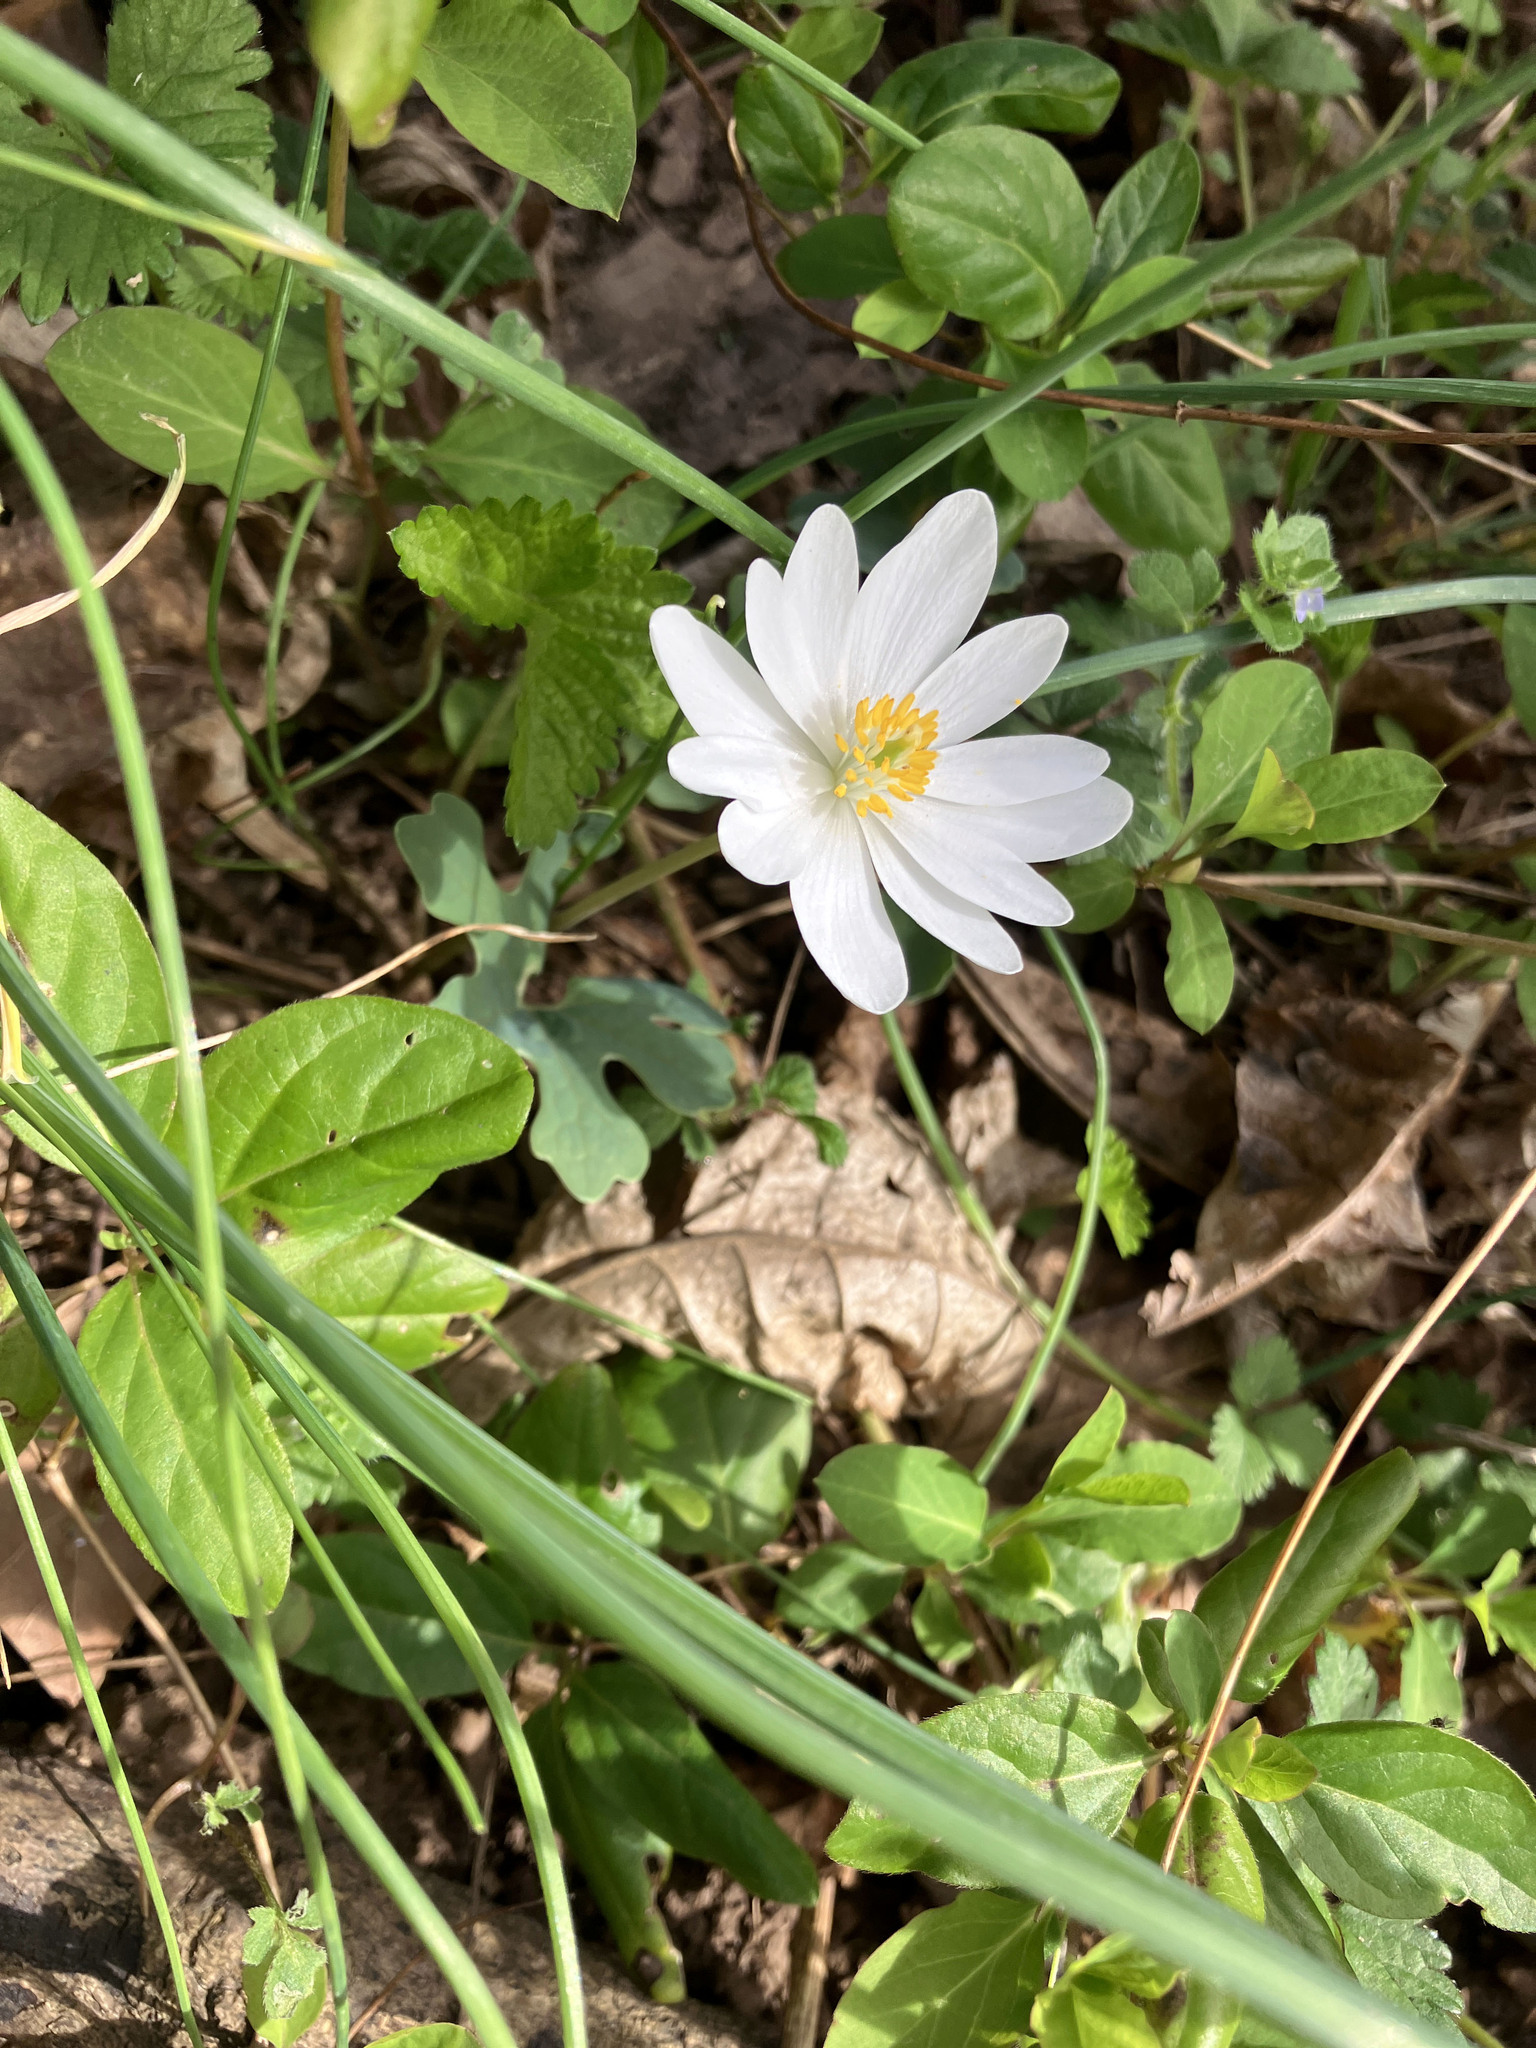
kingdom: Plantae
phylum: Tracheophyta
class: Magnoliopsida
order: Ranunculales
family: Papaveraceae
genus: Sanguinaria
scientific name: Sanguinaria canadensis
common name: Bloodroot
